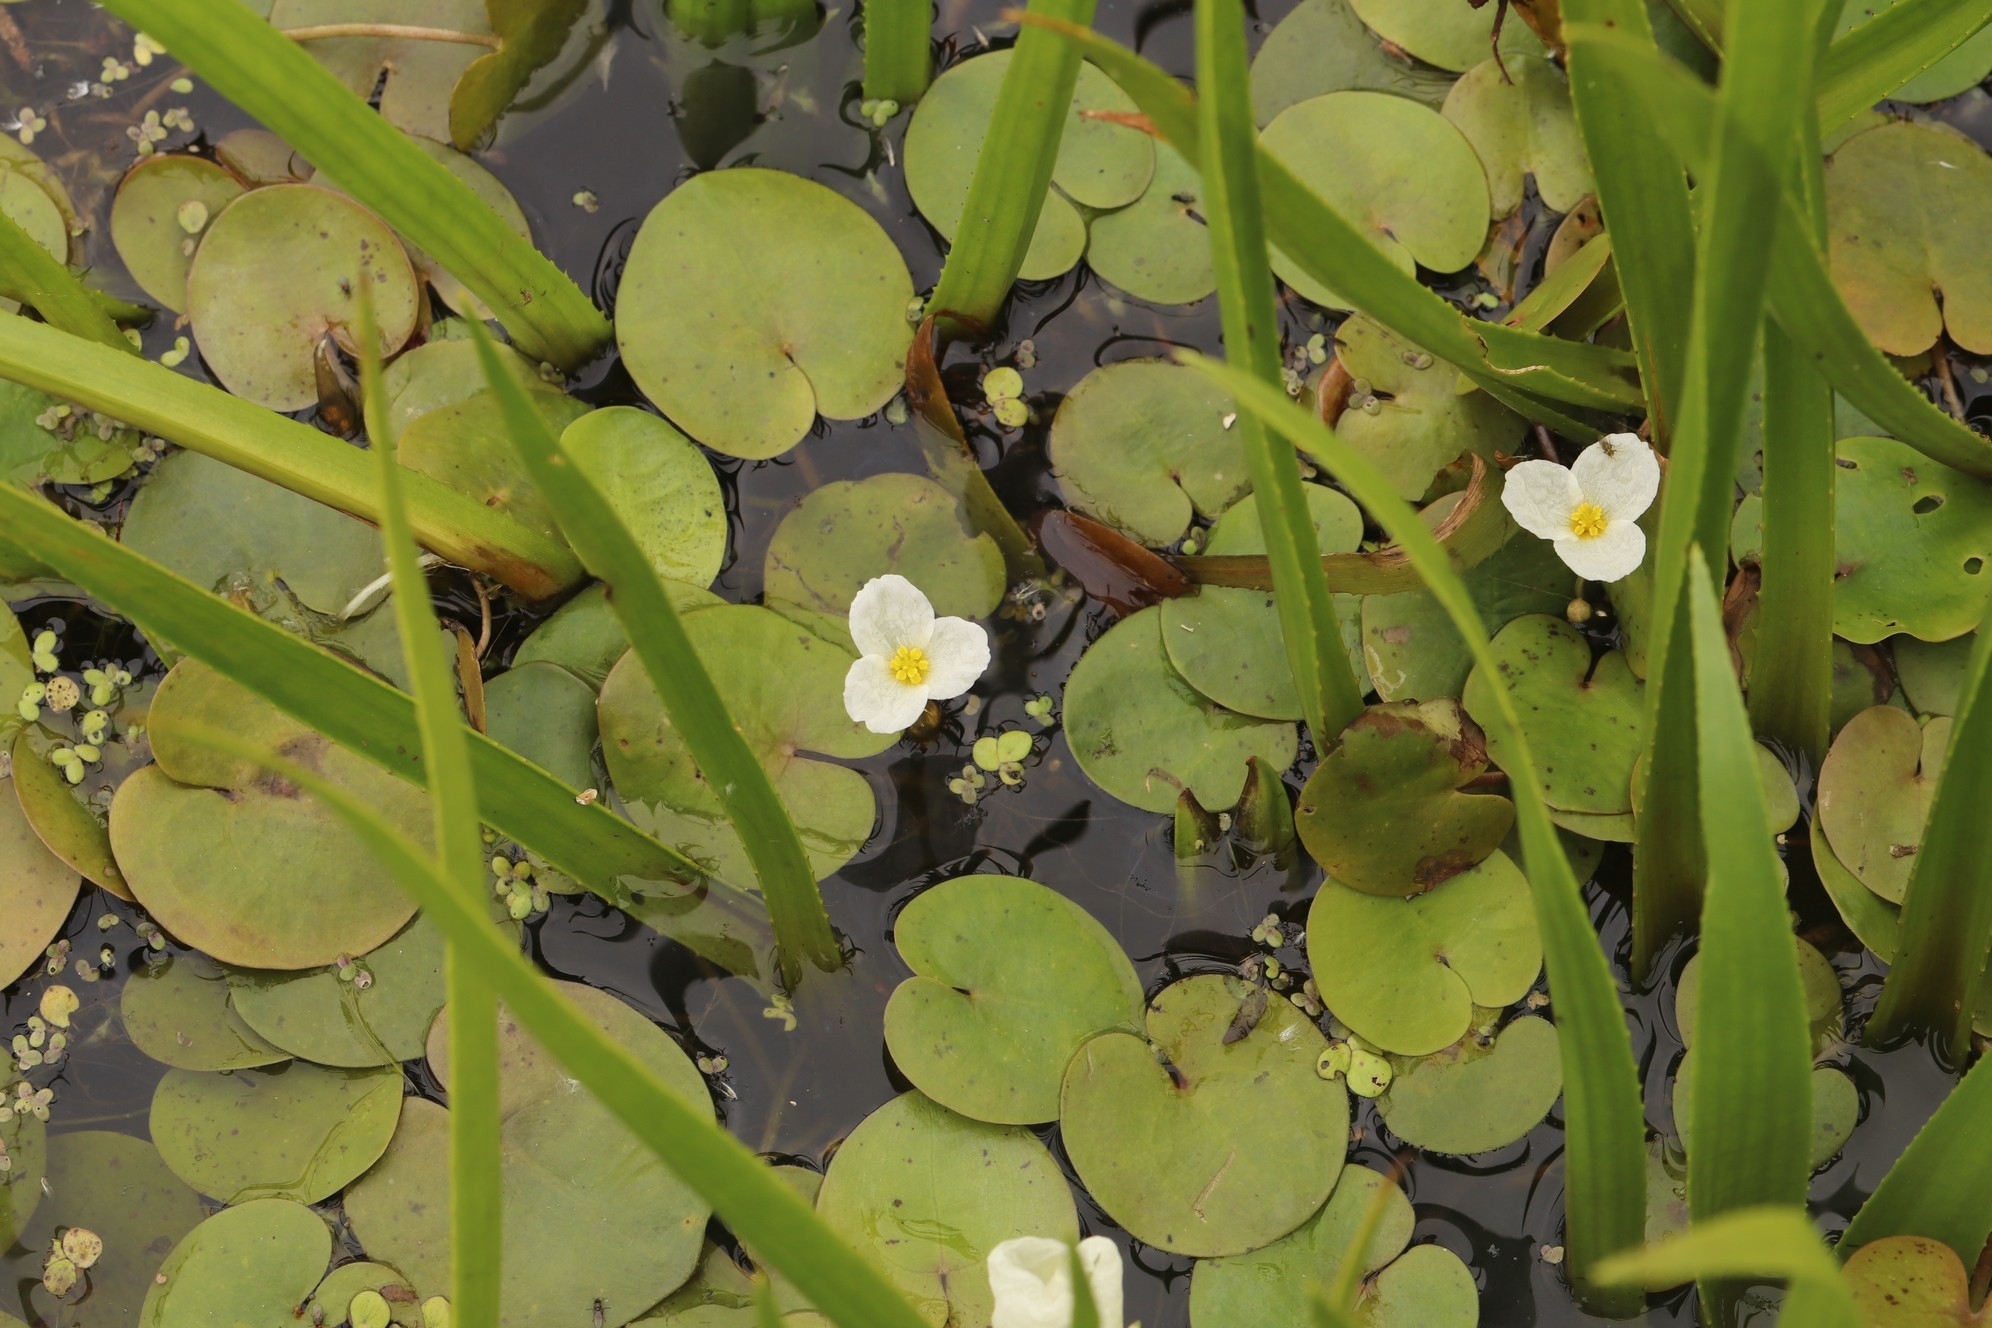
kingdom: Plantae
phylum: Tracheophyta
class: Liliopsida
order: Alismatales
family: Hydrocharitaceae
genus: Hydrocharis
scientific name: Hydrocharis morsus-ranae
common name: Frogbit
